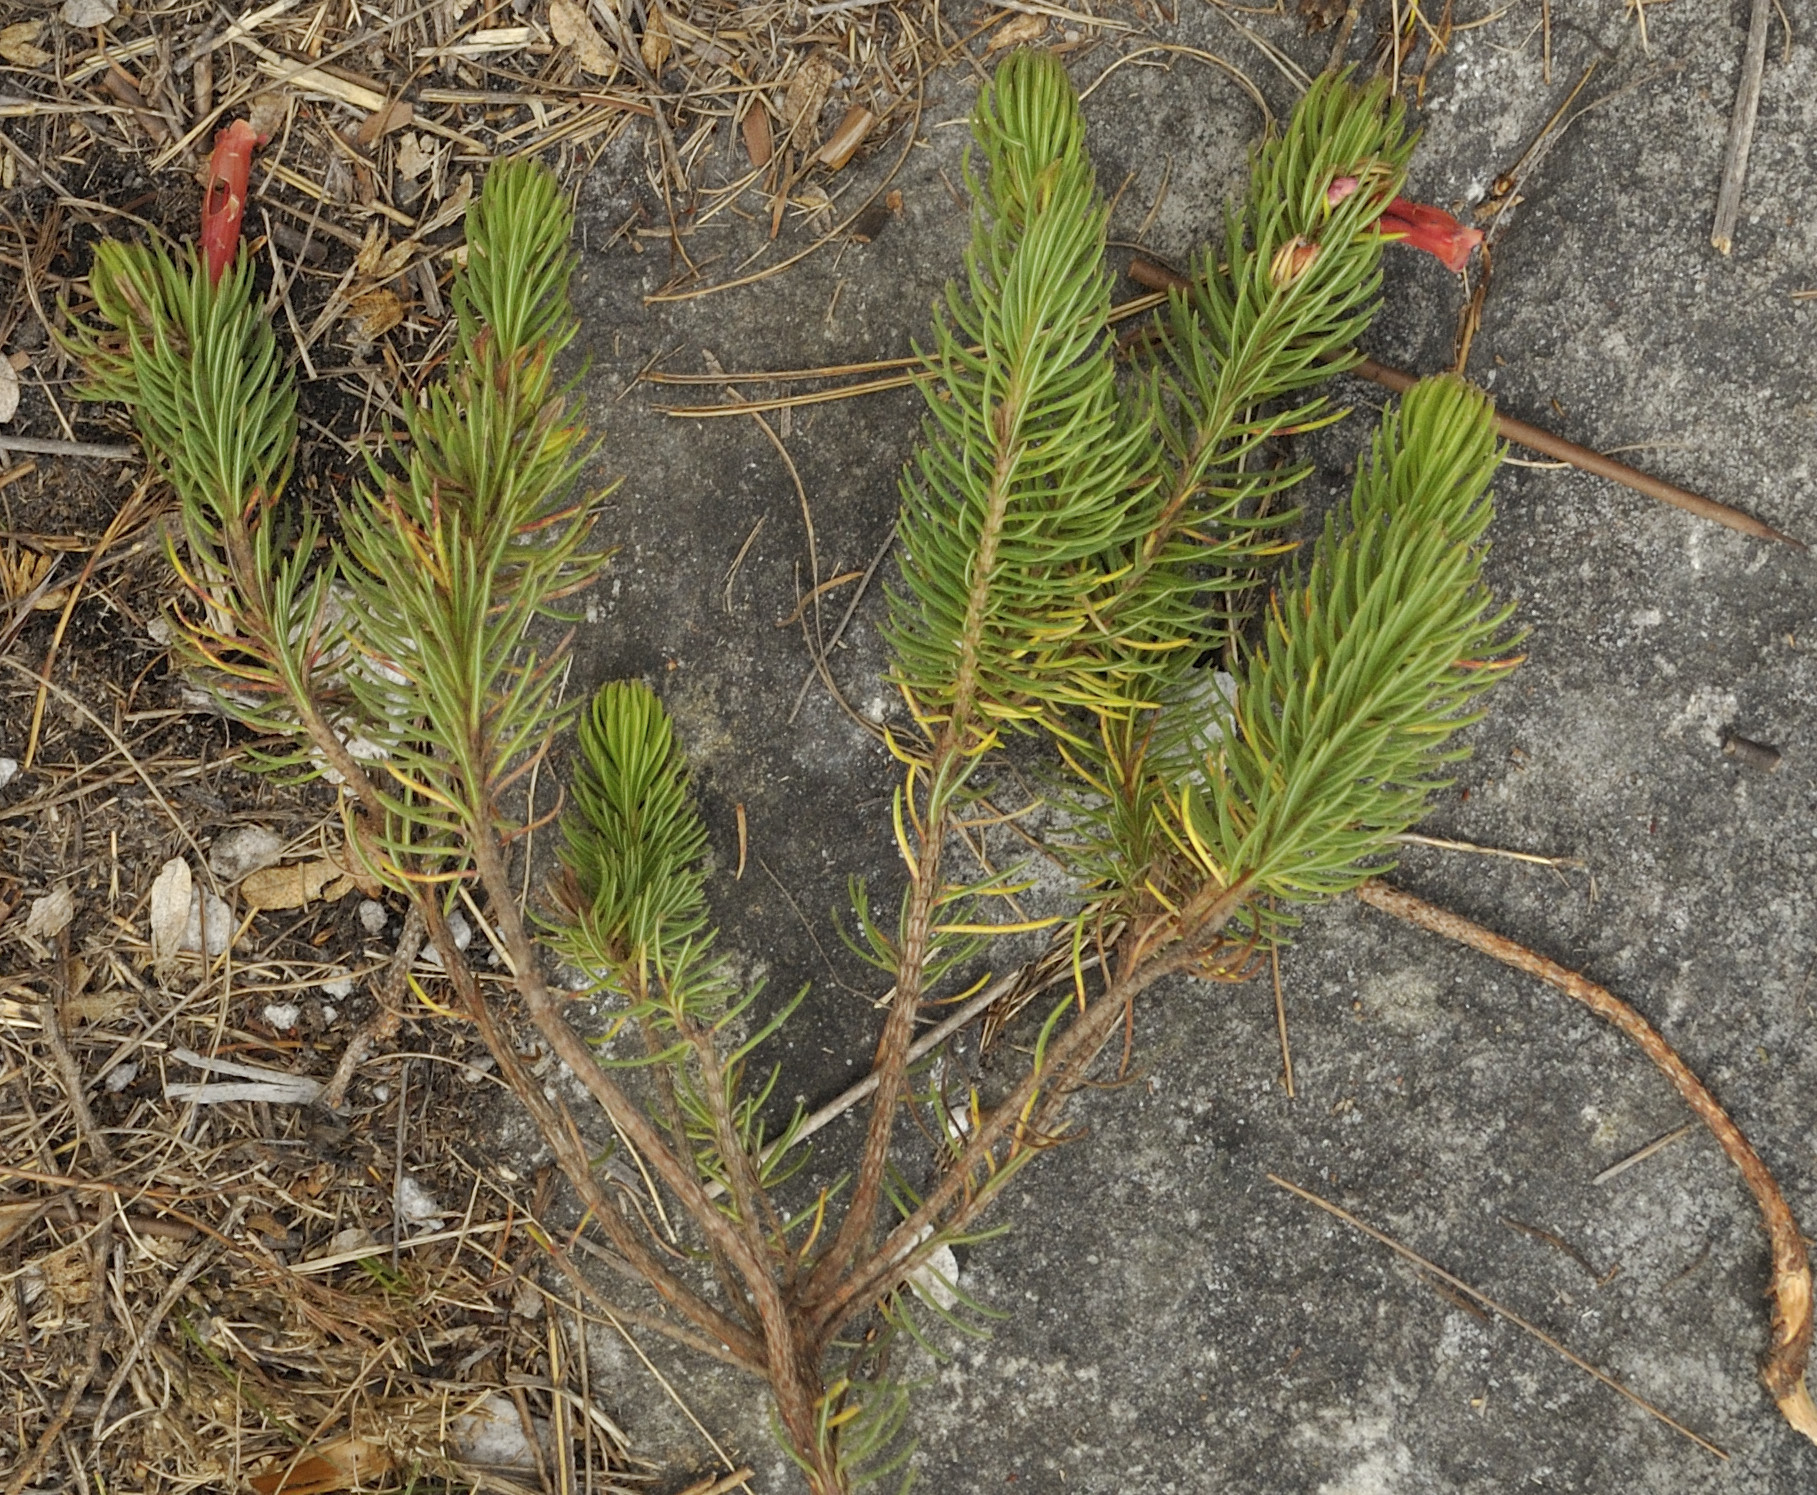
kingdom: Plantae
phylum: Tracheophyta
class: Magnoliopsida
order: Ericales
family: Ericaceae
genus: Erica
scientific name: Erica viscaria
